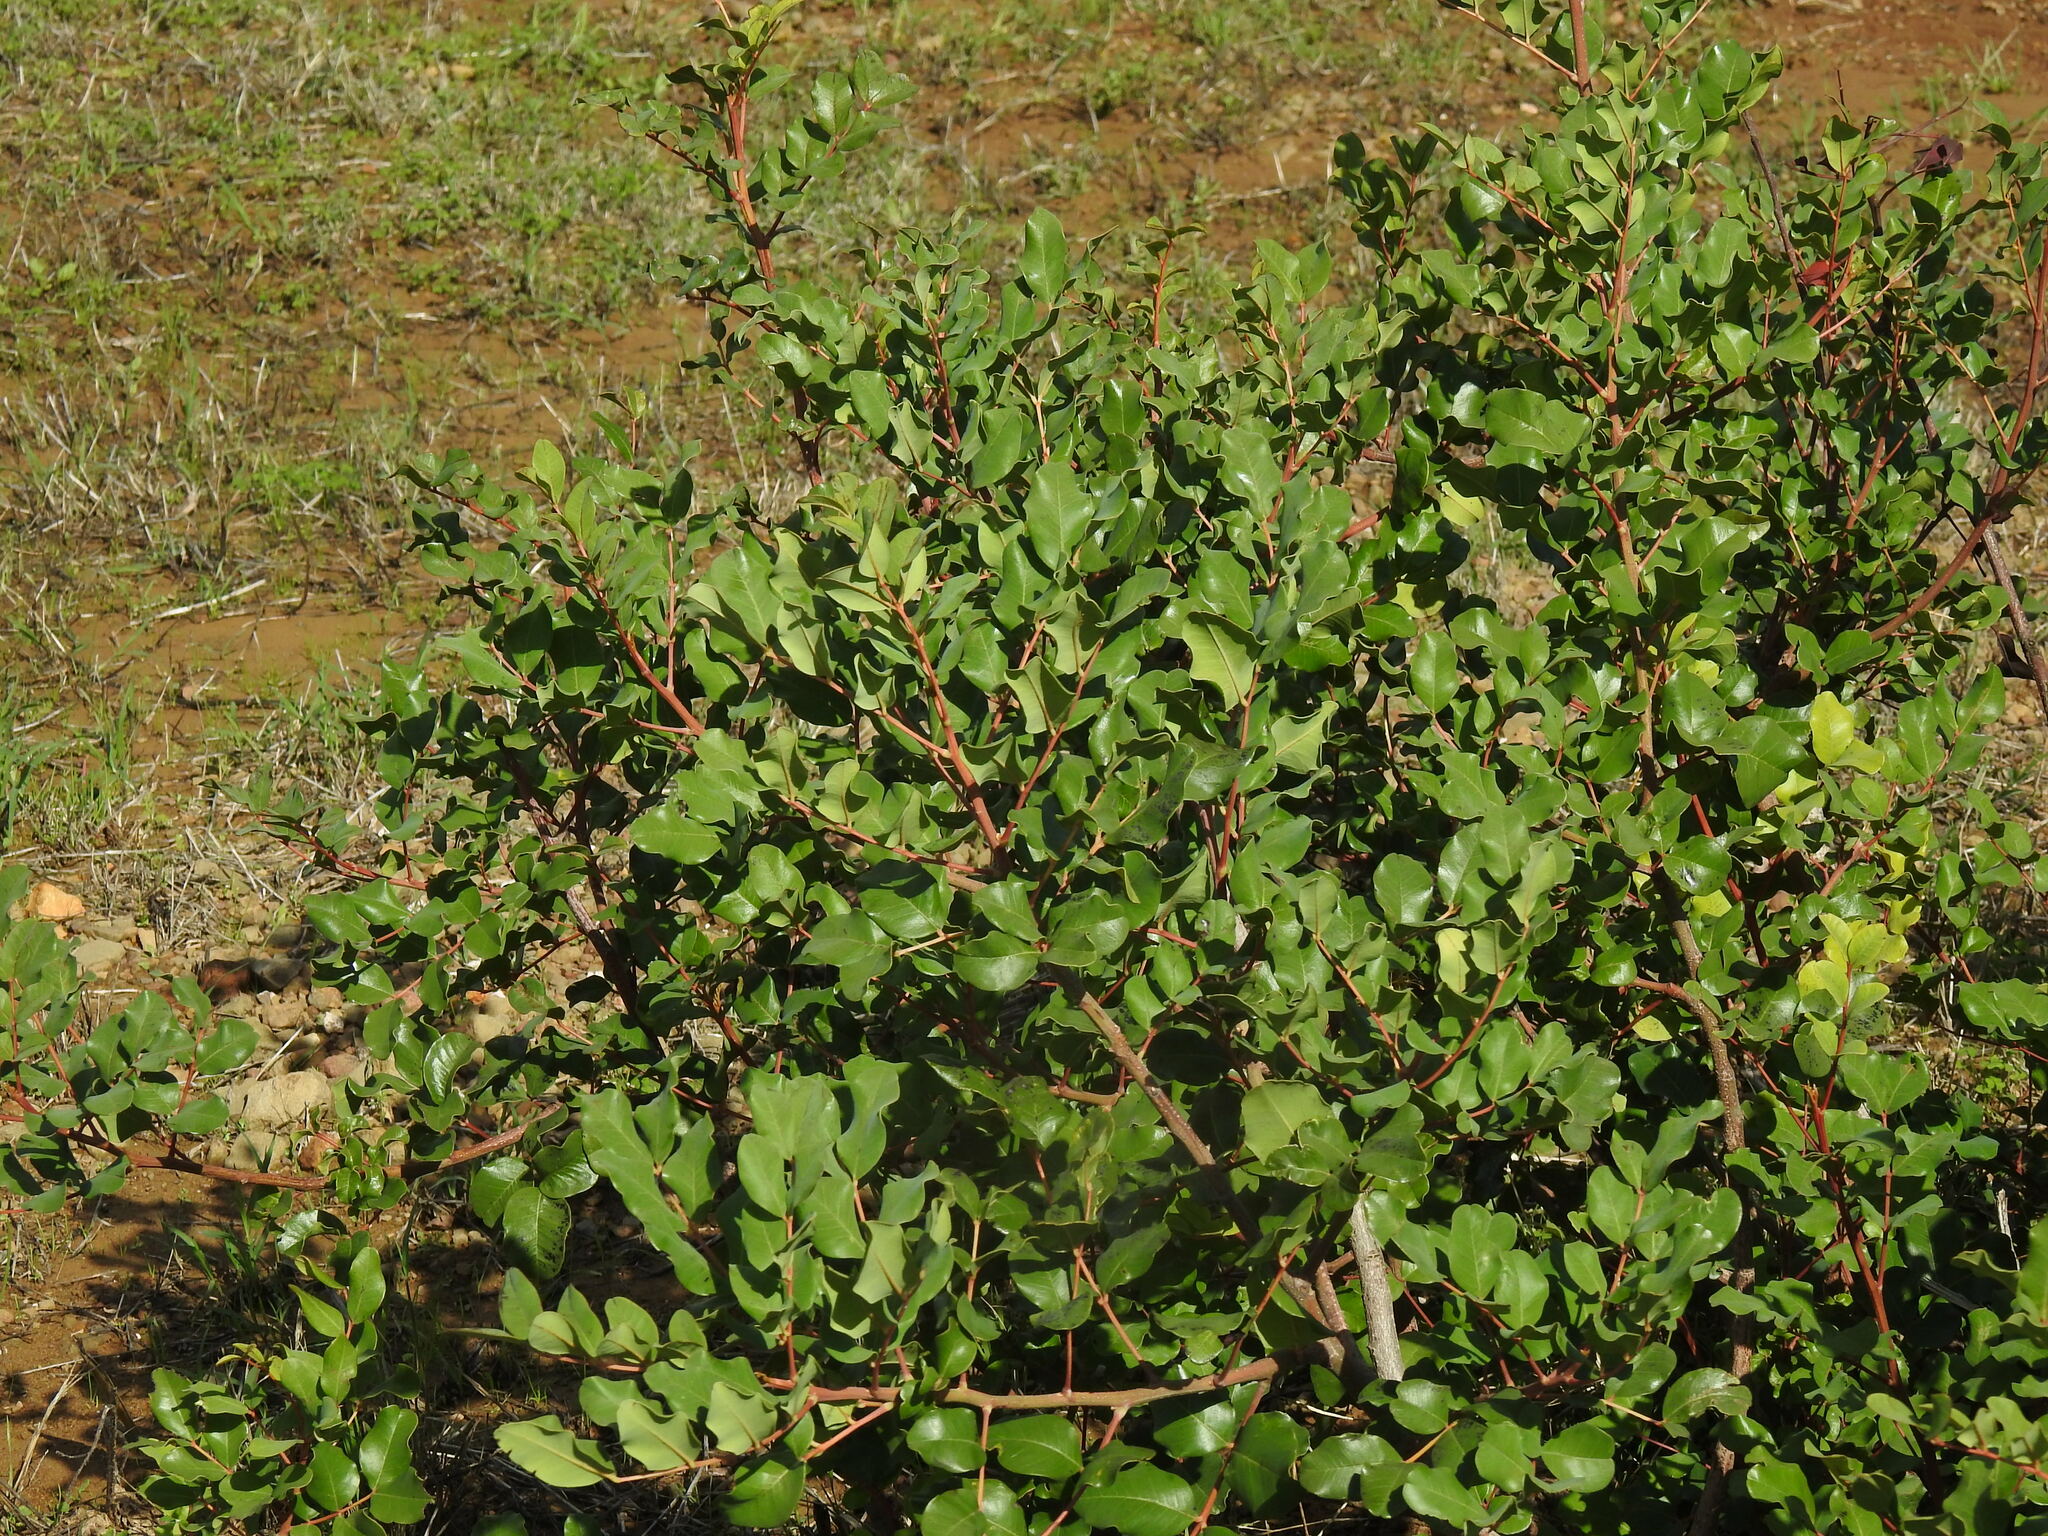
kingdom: Plantae
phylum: Tracheophyta
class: Magnoliopsida
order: Fabales
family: Fabaceae
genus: Ceratonia
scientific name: Ceratonia siliqua
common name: Carob
